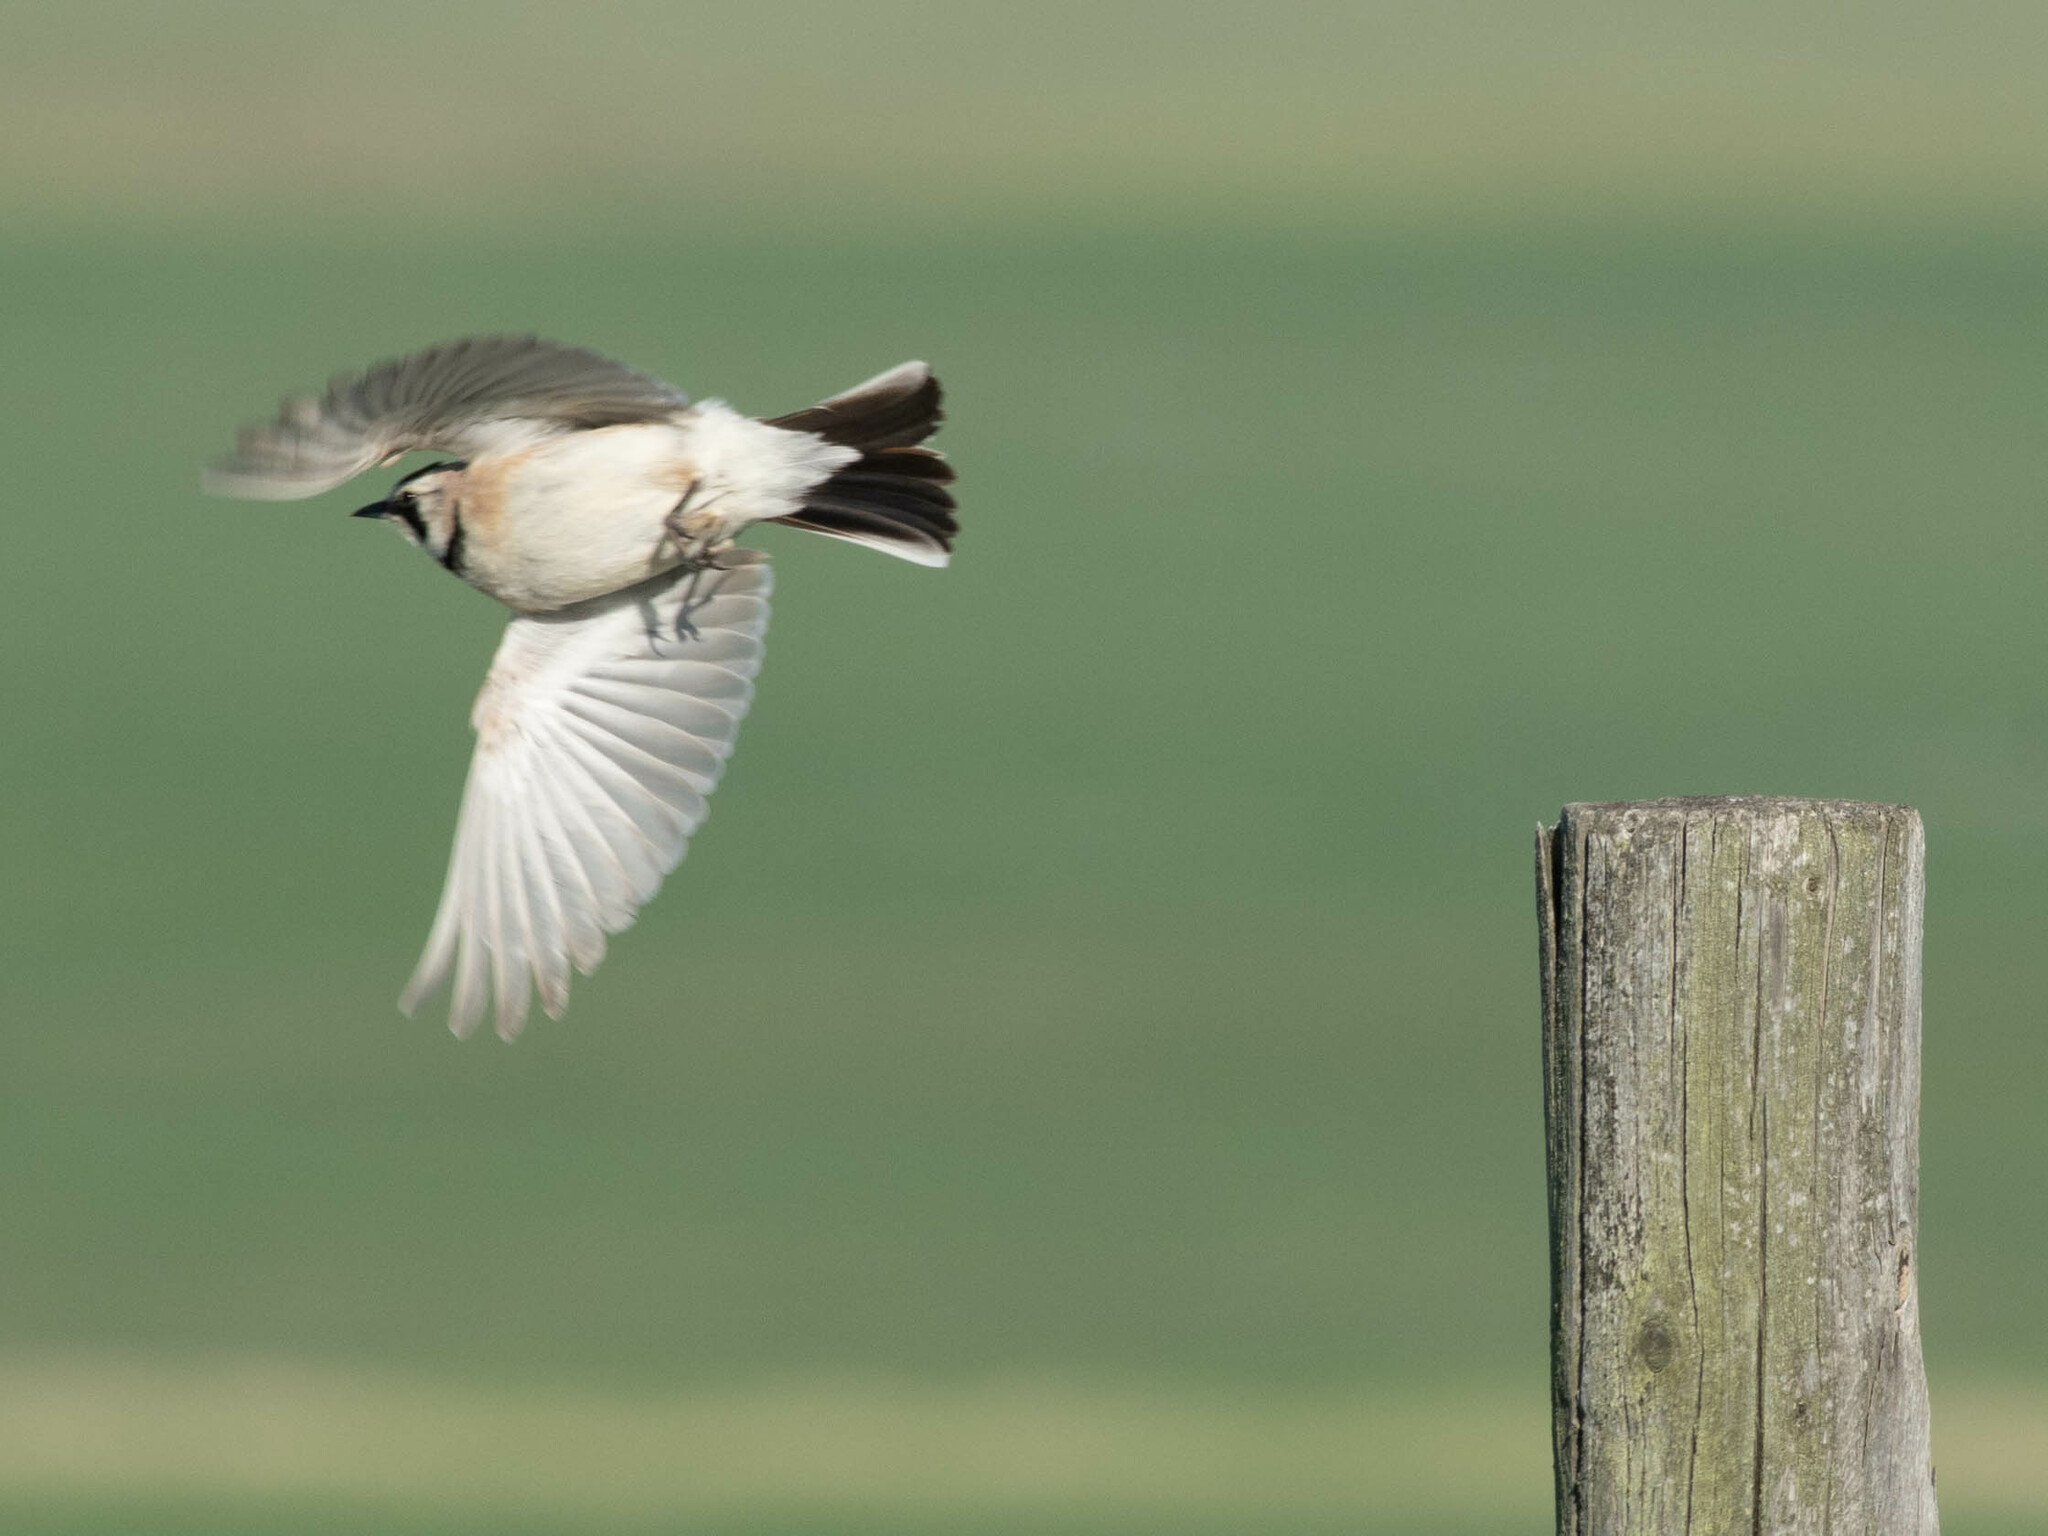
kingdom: Animalia
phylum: Chordata
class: Aves
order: Passeriformes
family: Alaudidae
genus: Eremophila
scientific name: Eremophila alpestris
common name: Horned lark
